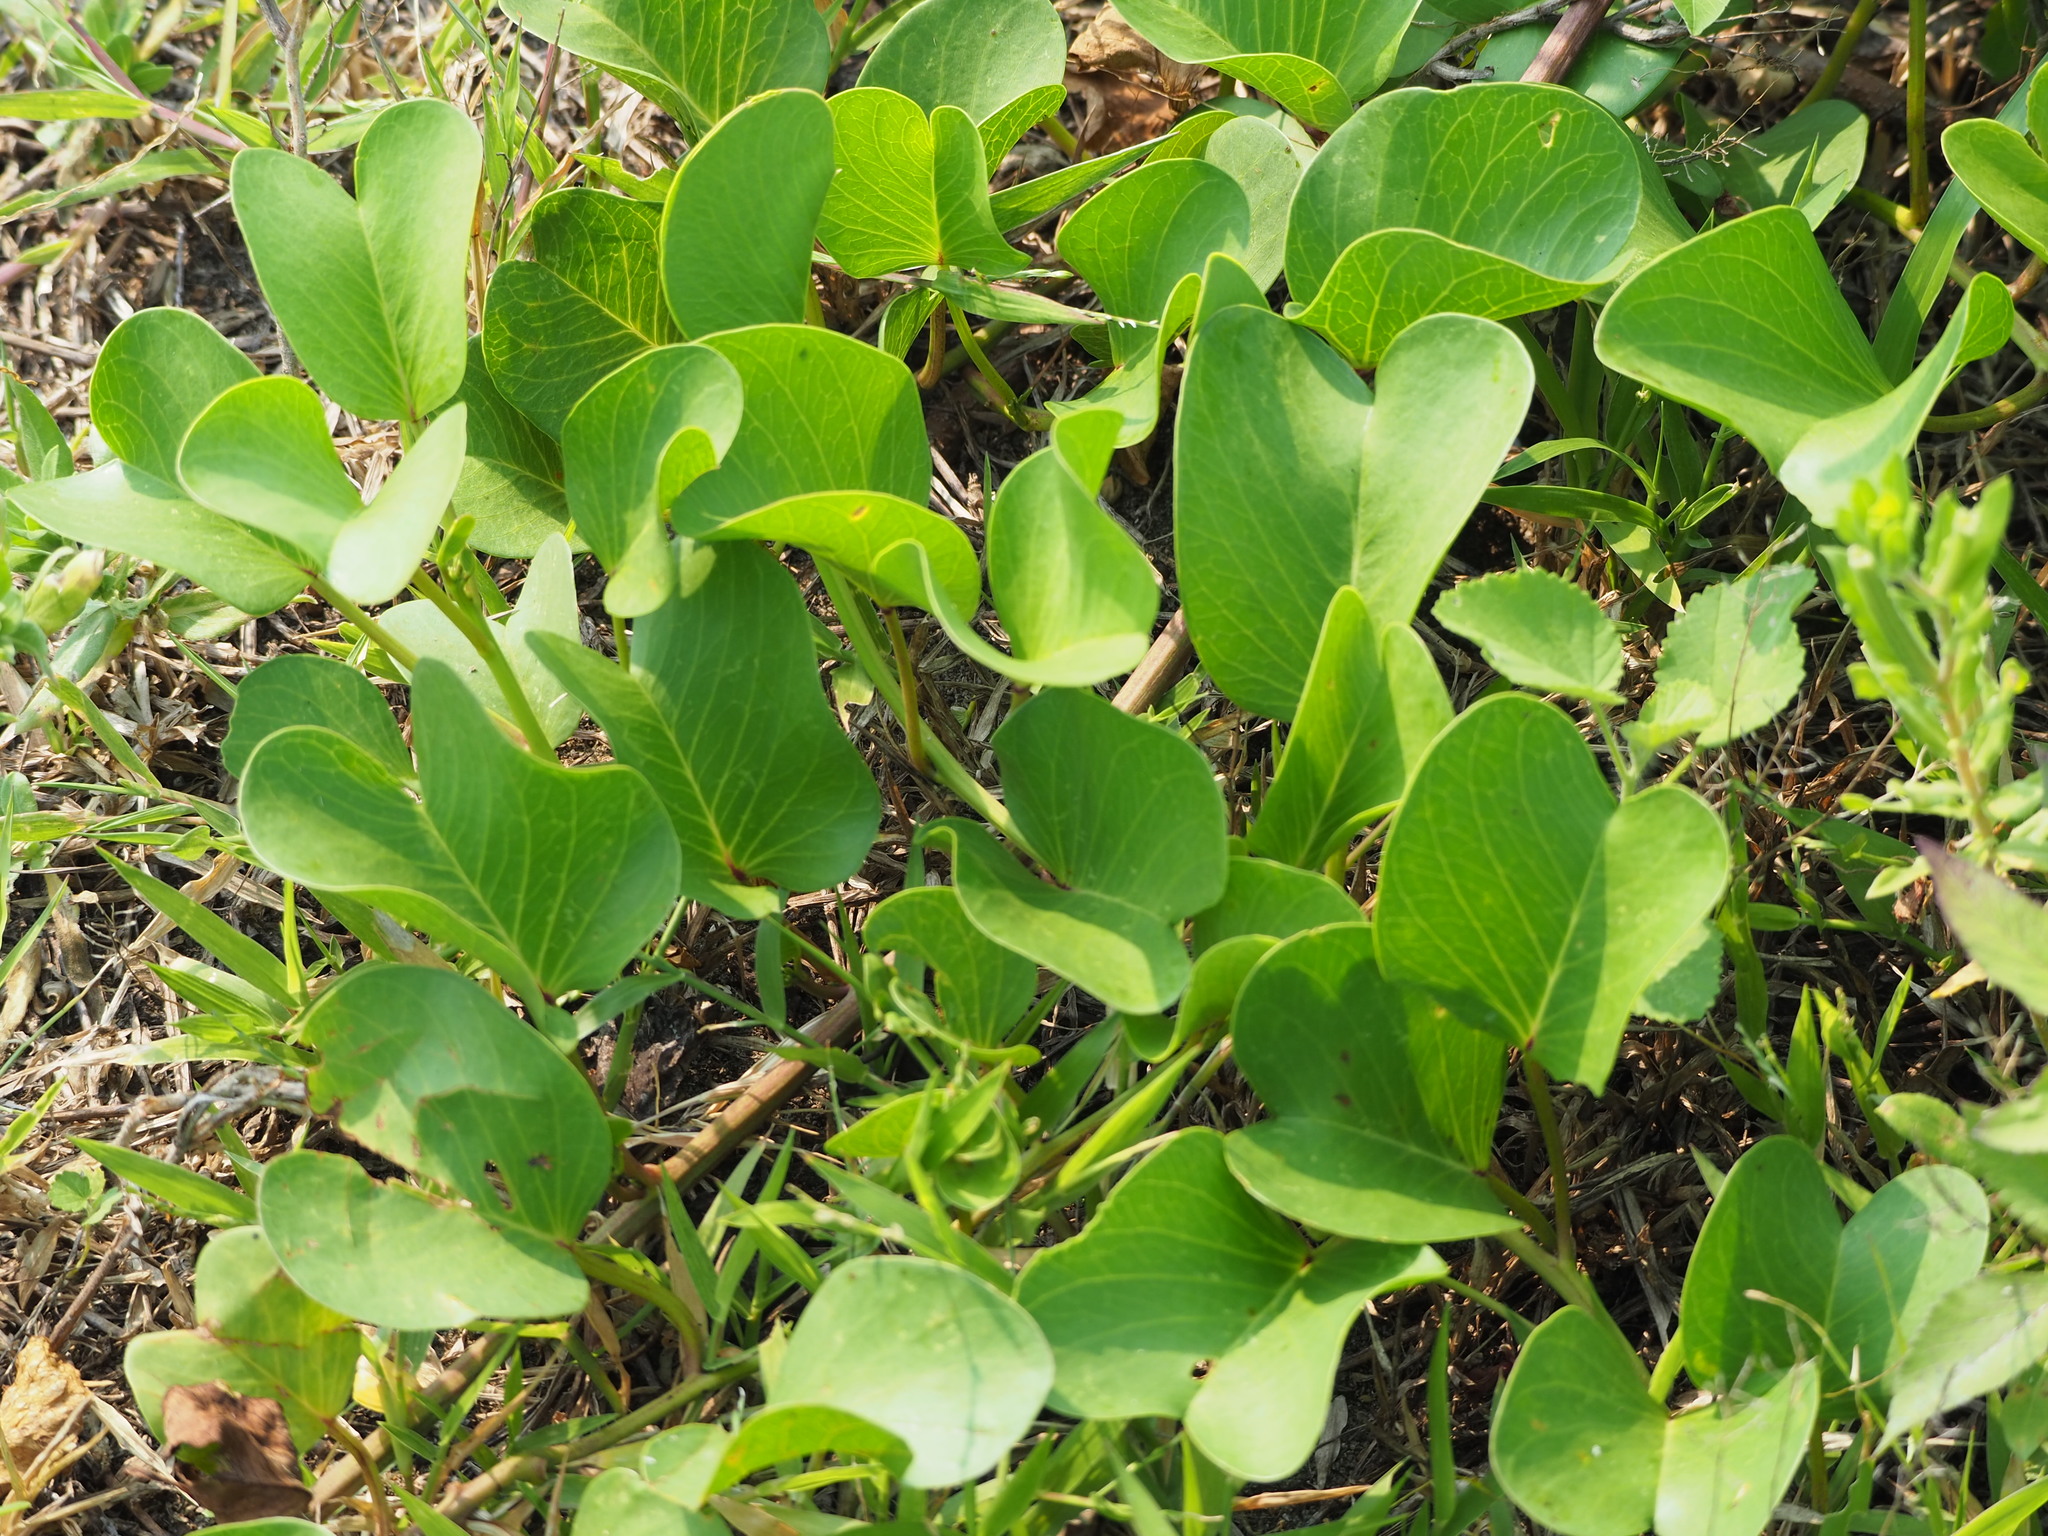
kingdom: Plantae
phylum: Tracheophyta
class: Magnoliopsida
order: Solanales
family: Convolvulaceae
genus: Ipomoea
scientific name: Ipomoea pes-caprae
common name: Beach morning glory
